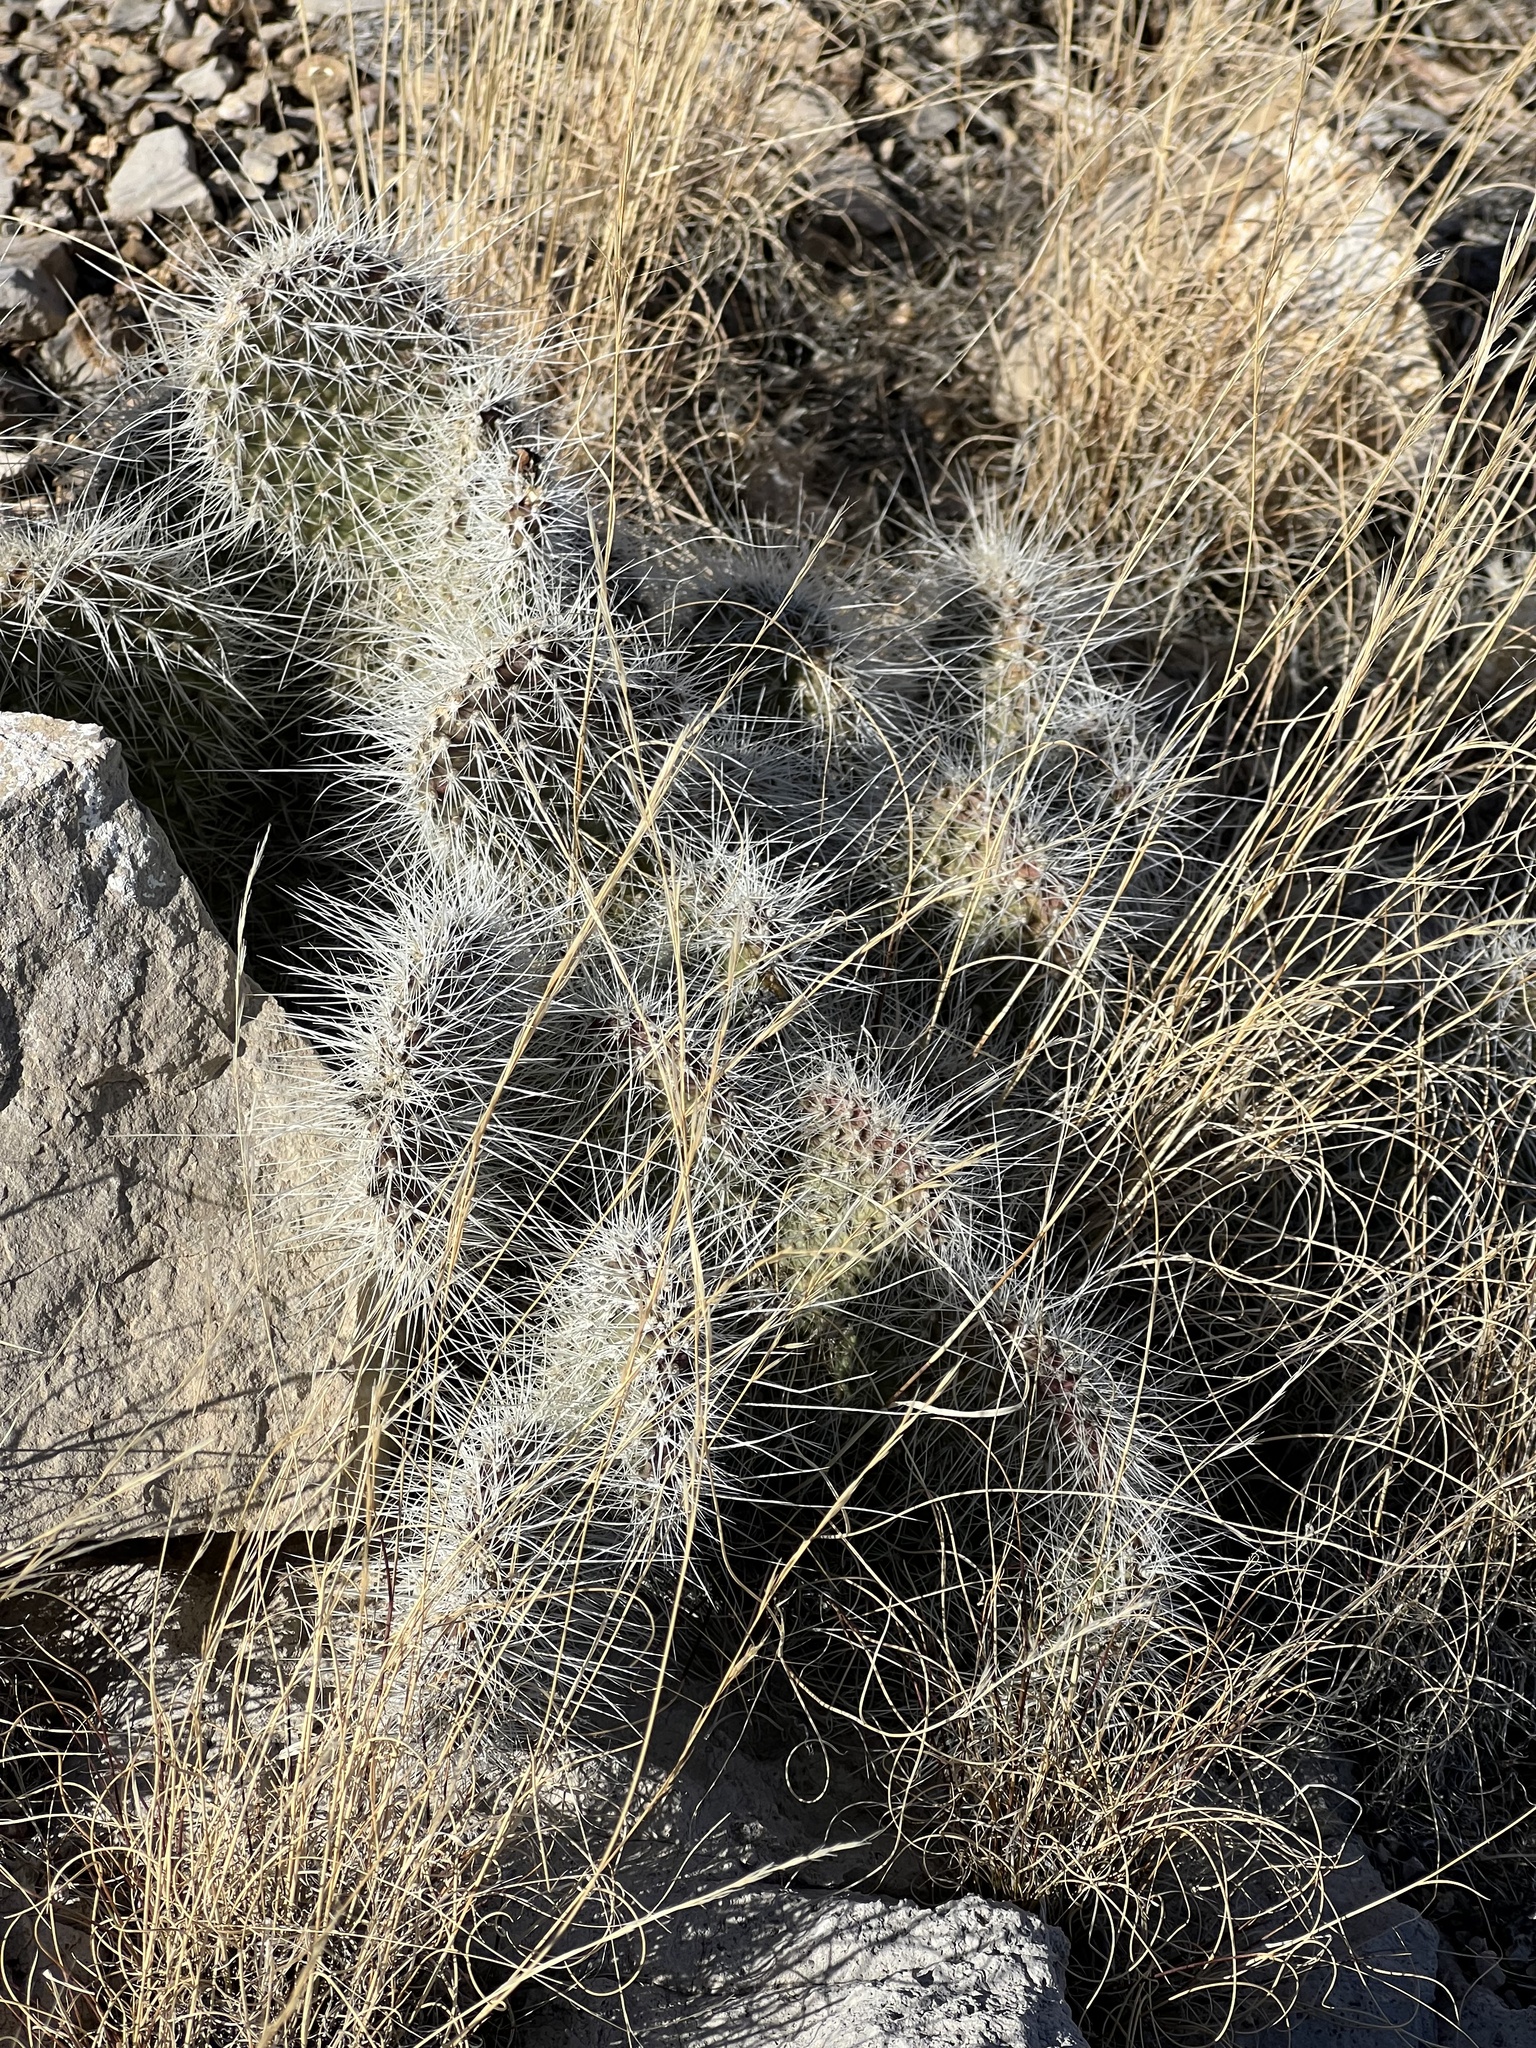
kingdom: Plantae
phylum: Tracheophyta
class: Magnoliopsida
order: Caryophyllales
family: Cactaceae
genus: Opuntia
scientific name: Opuntia polyacantha
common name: Plains prickly-pear
